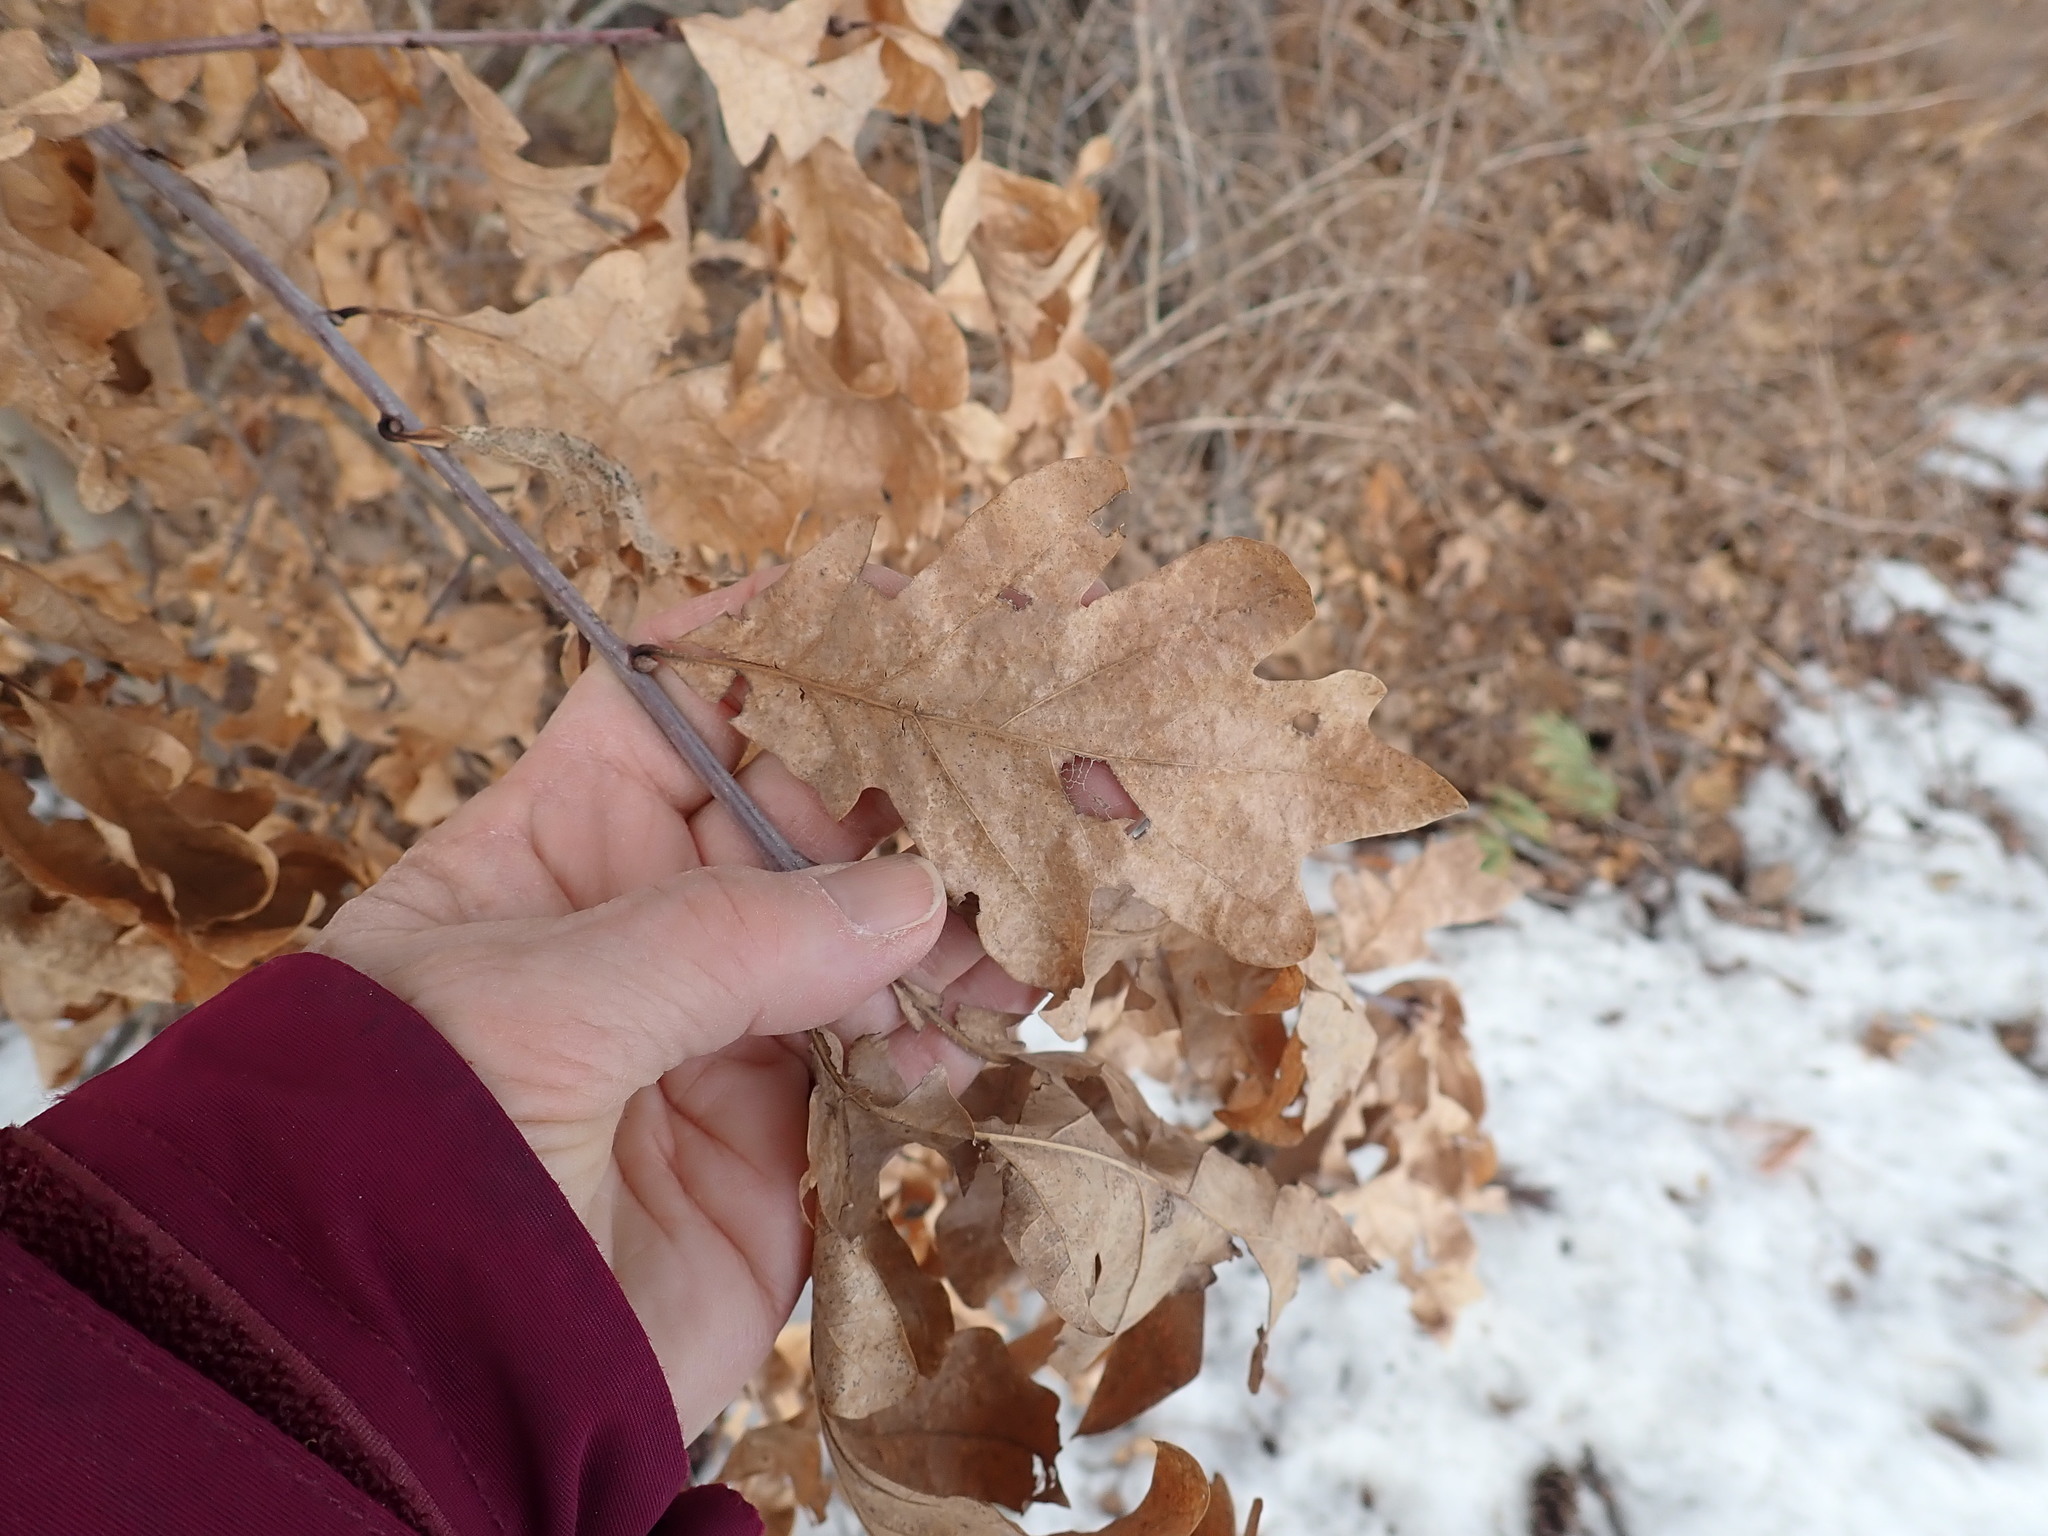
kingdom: Plantae
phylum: Tracheophyta
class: Magnoliopsida
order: Fagales
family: Fagaceae
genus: Quercus
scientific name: Quercus alba
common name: White oak
